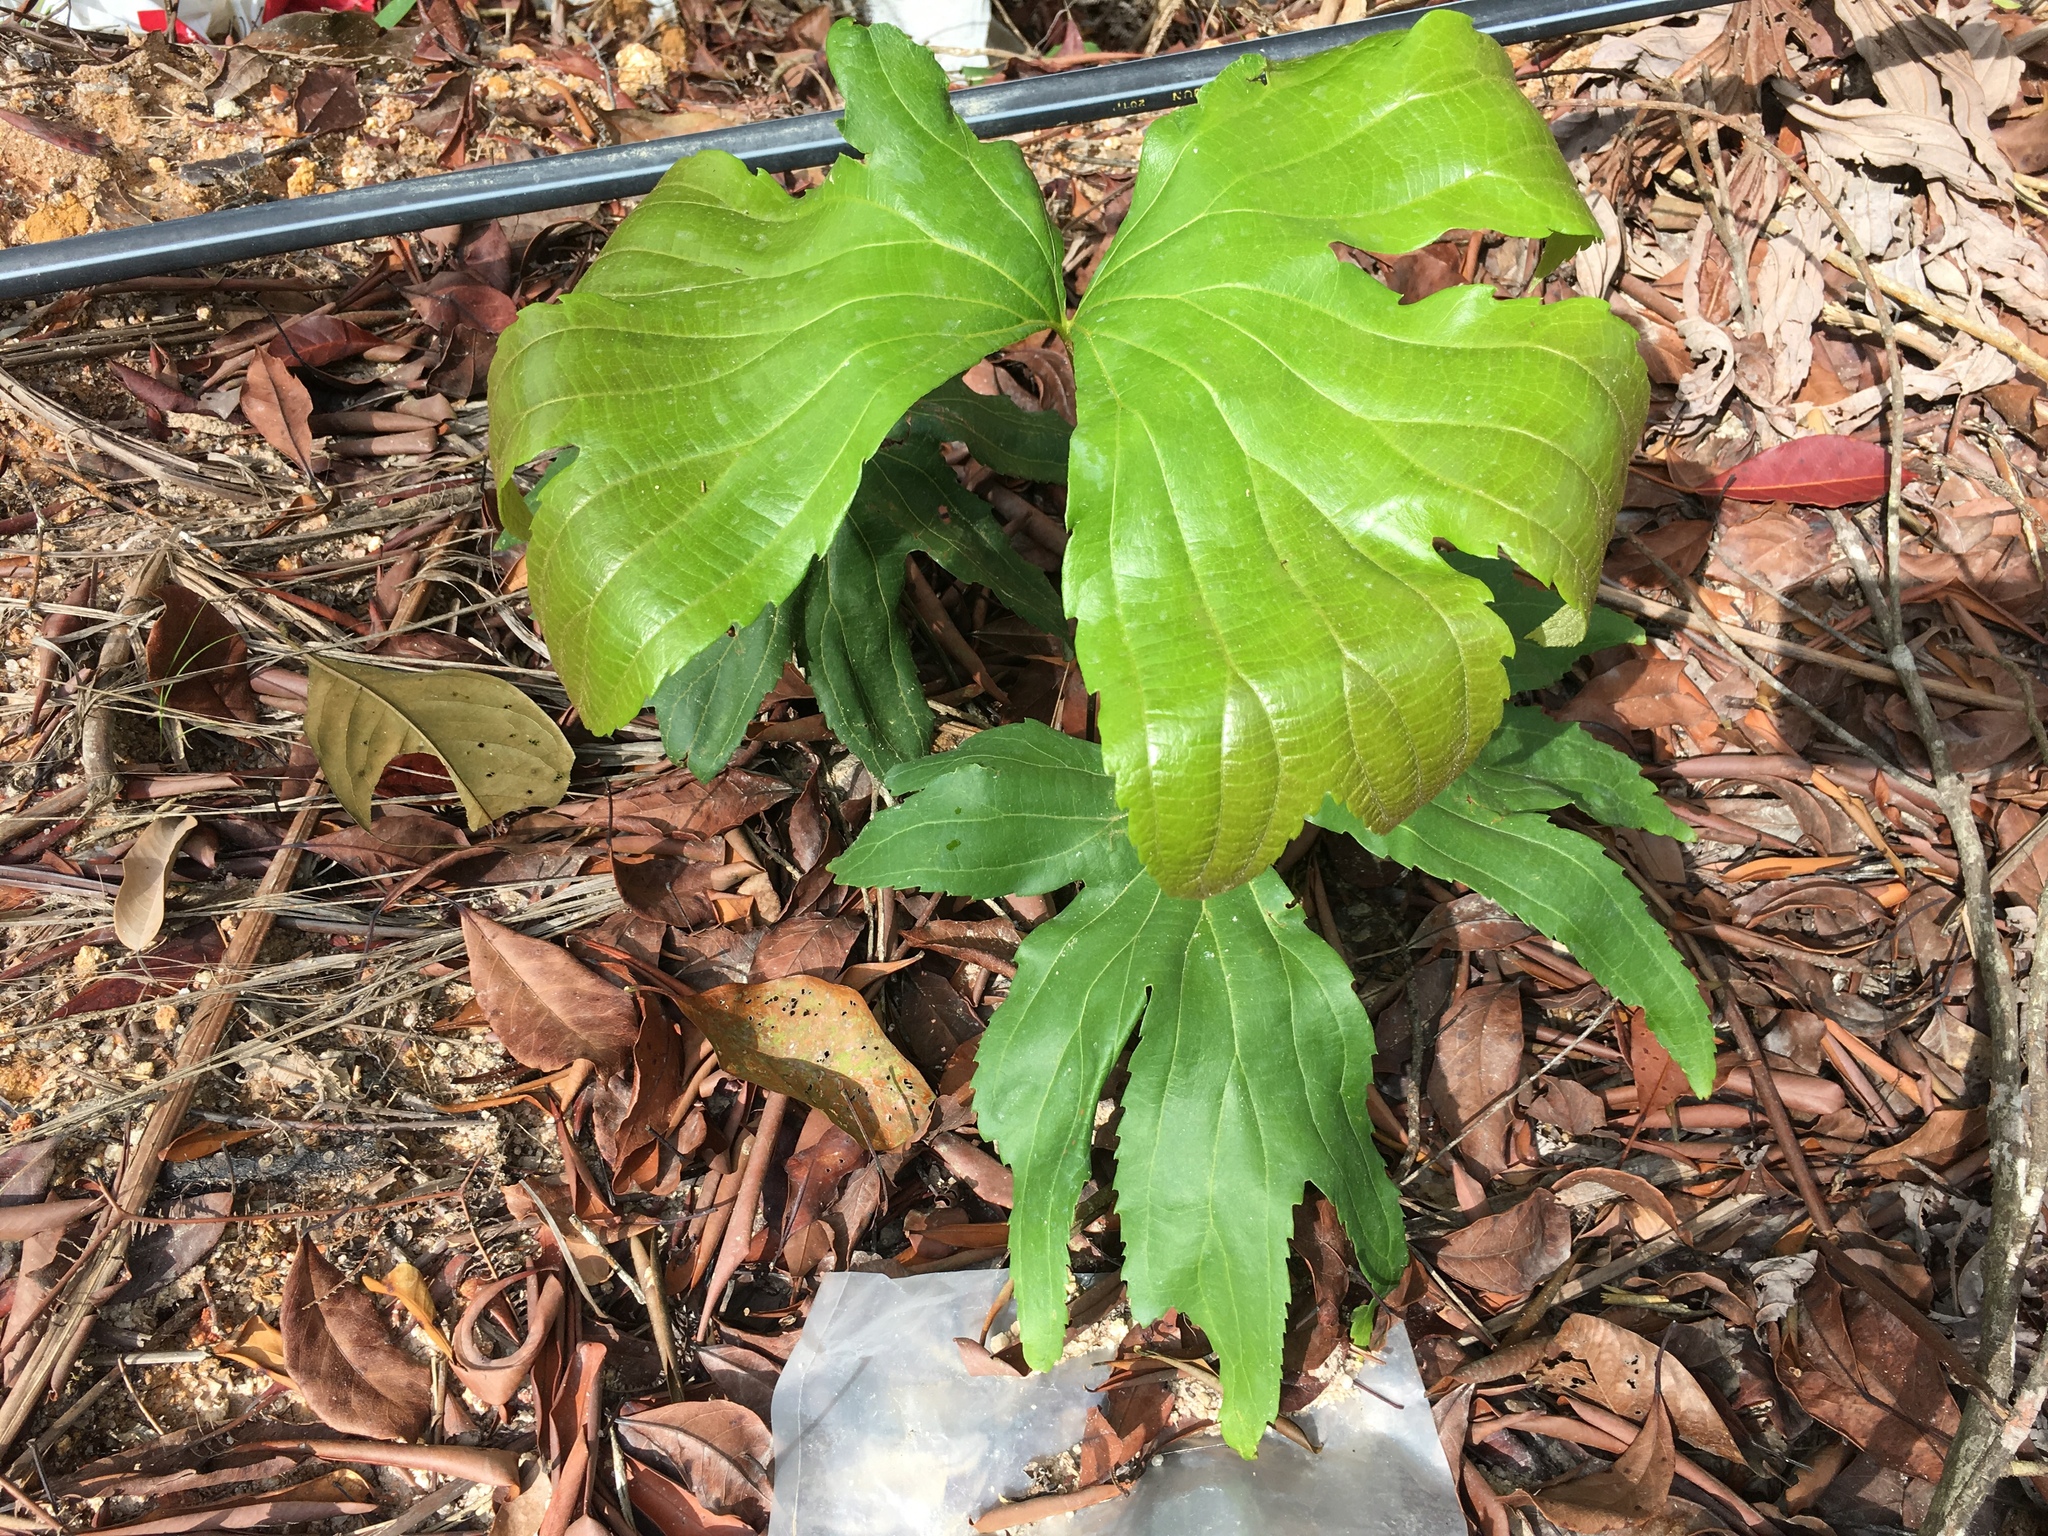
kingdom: Plantae
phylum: Tracheophyta
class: Polypodiopsida
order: Gleicheniales
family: Dipteridaceae
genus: Dipteris
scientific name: Dipteris conjugata
